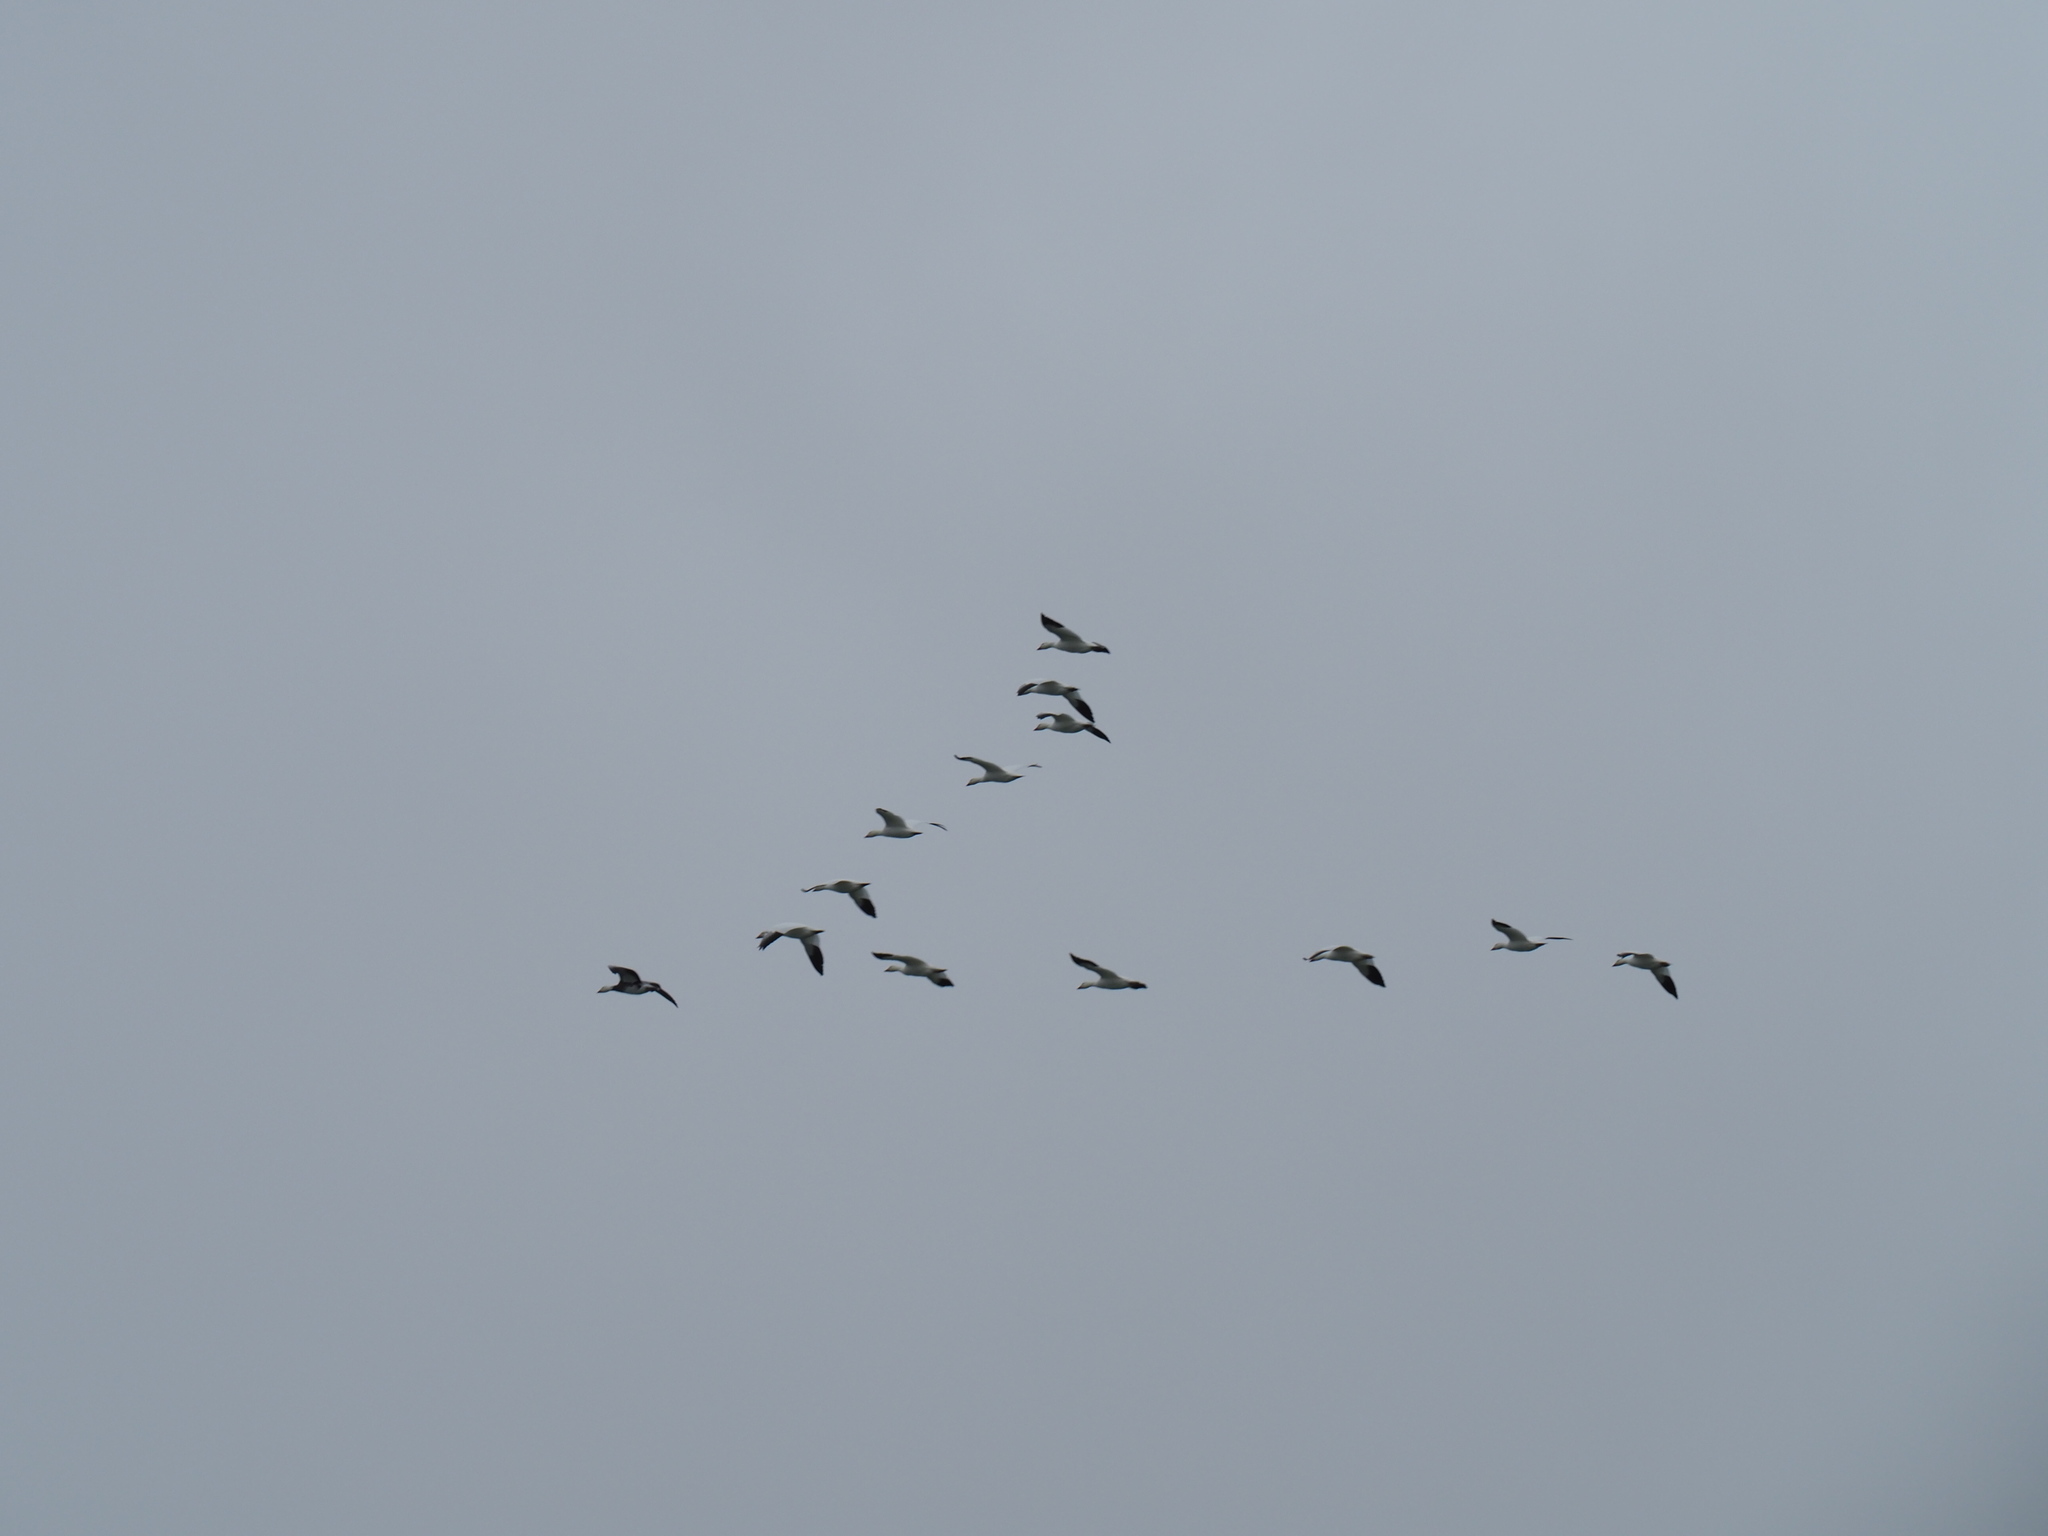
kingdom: Animalia
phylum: Chordata
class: Aves
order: Anseriformes
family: Anatidae
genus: Anser
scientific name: Anser caerulescens
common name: Snow goose
